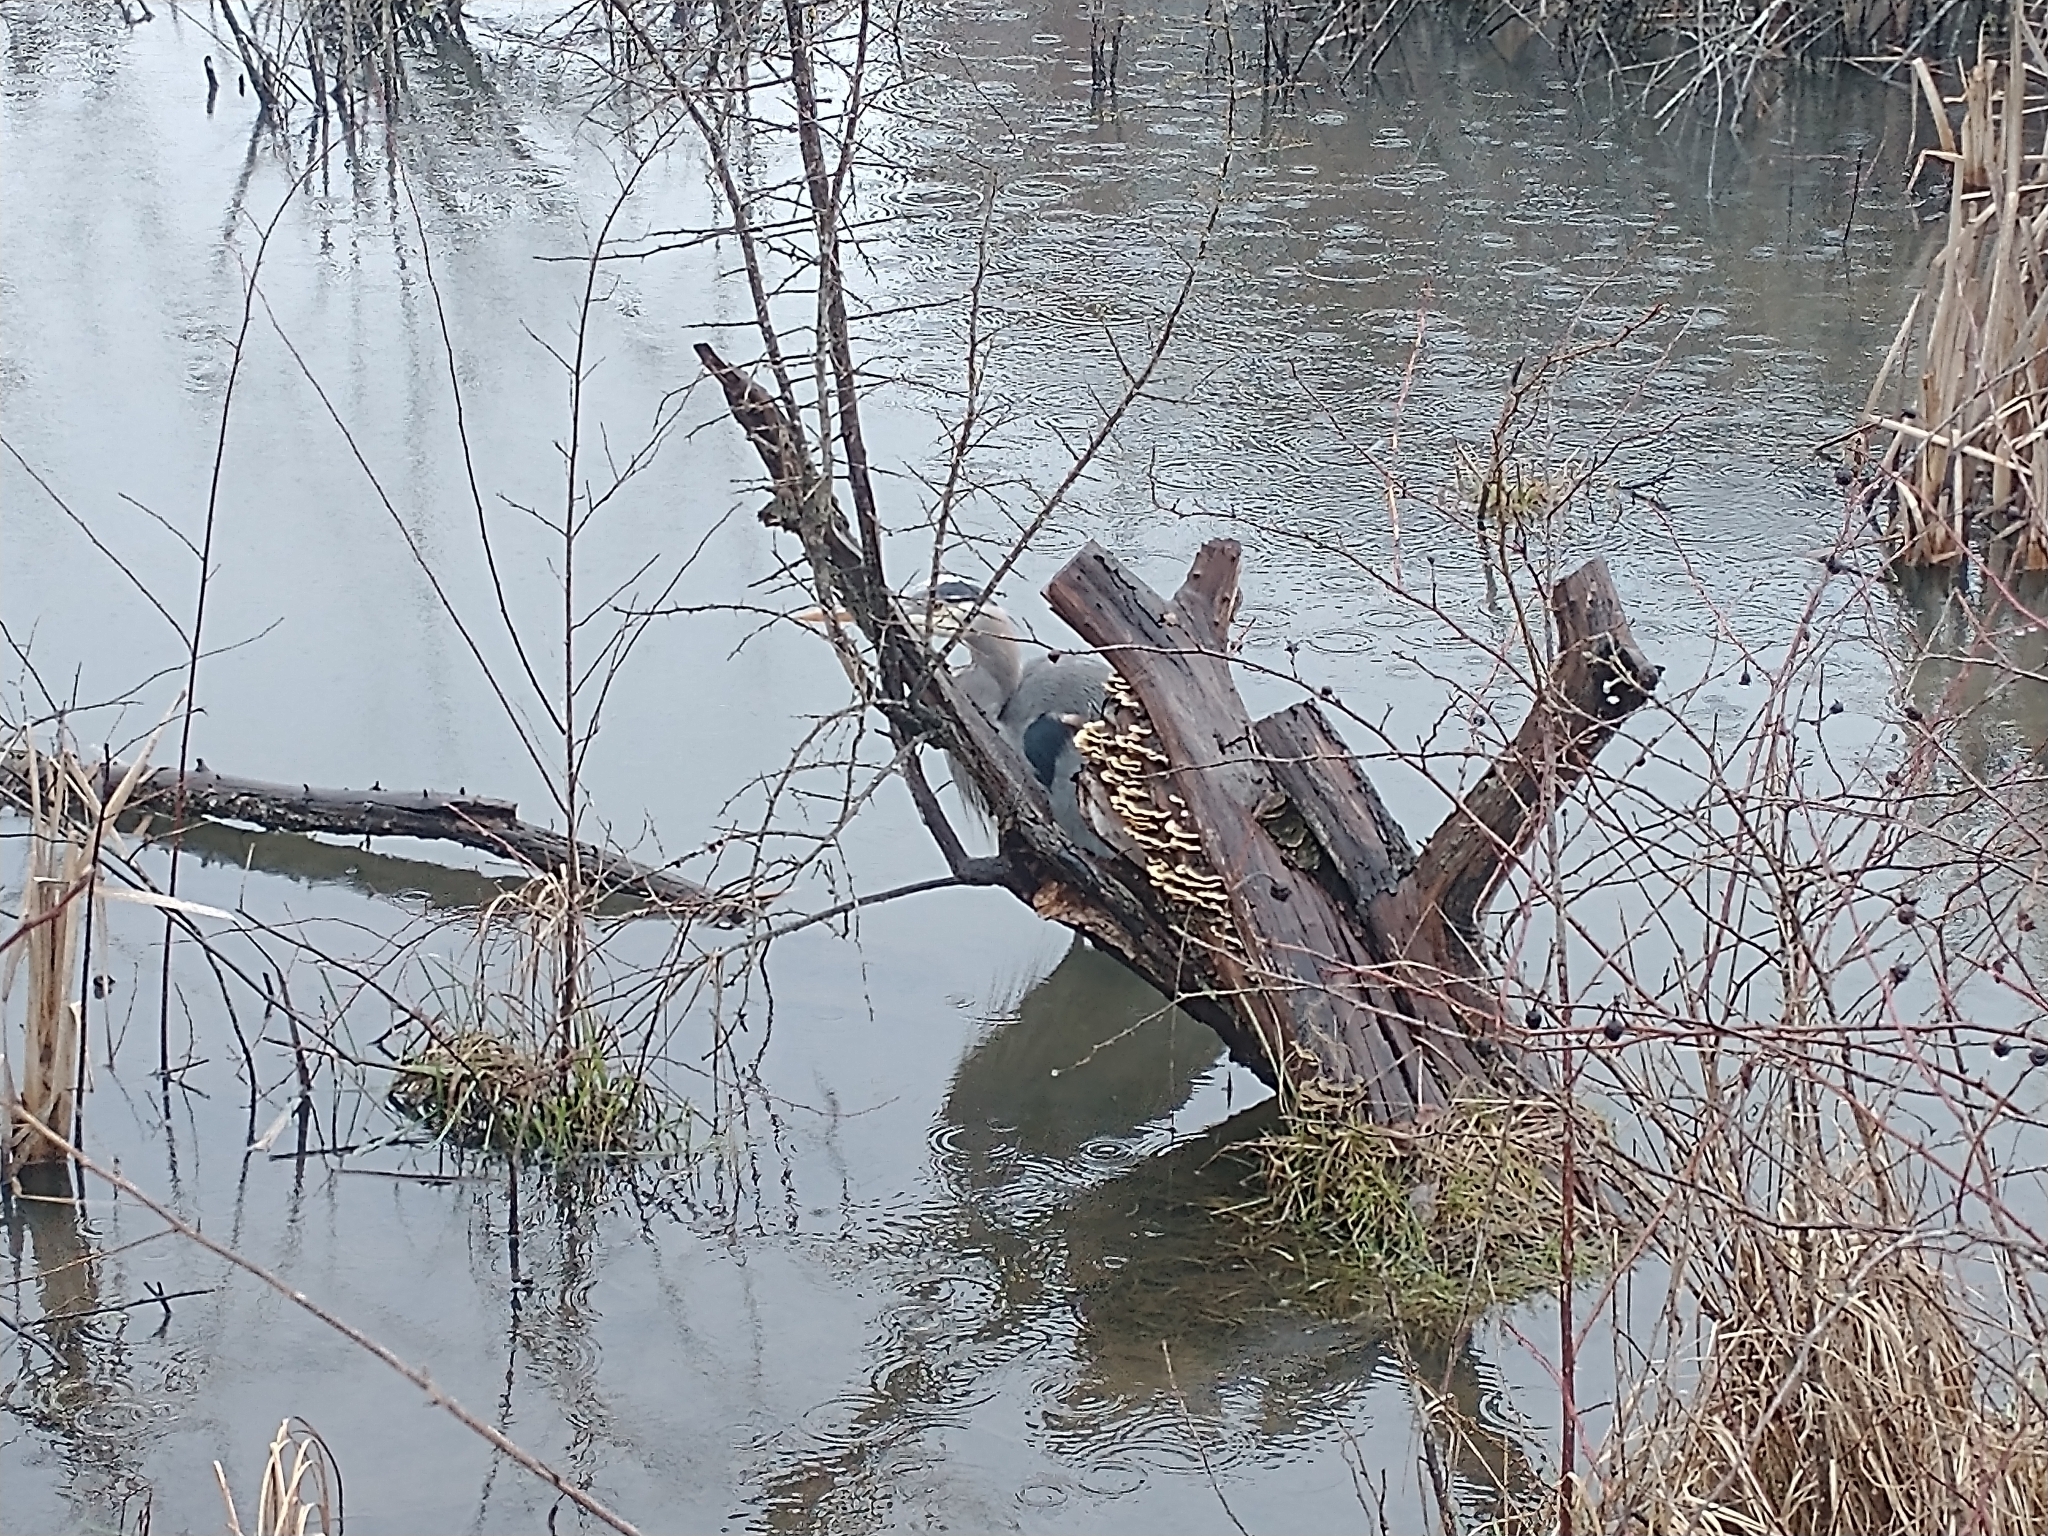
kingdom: Animalia
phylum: Chordata
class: Aves
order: Pelecaniformes
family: Ardeidae
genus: Ardea
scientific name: Ardea herodias
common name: Great blue heron
